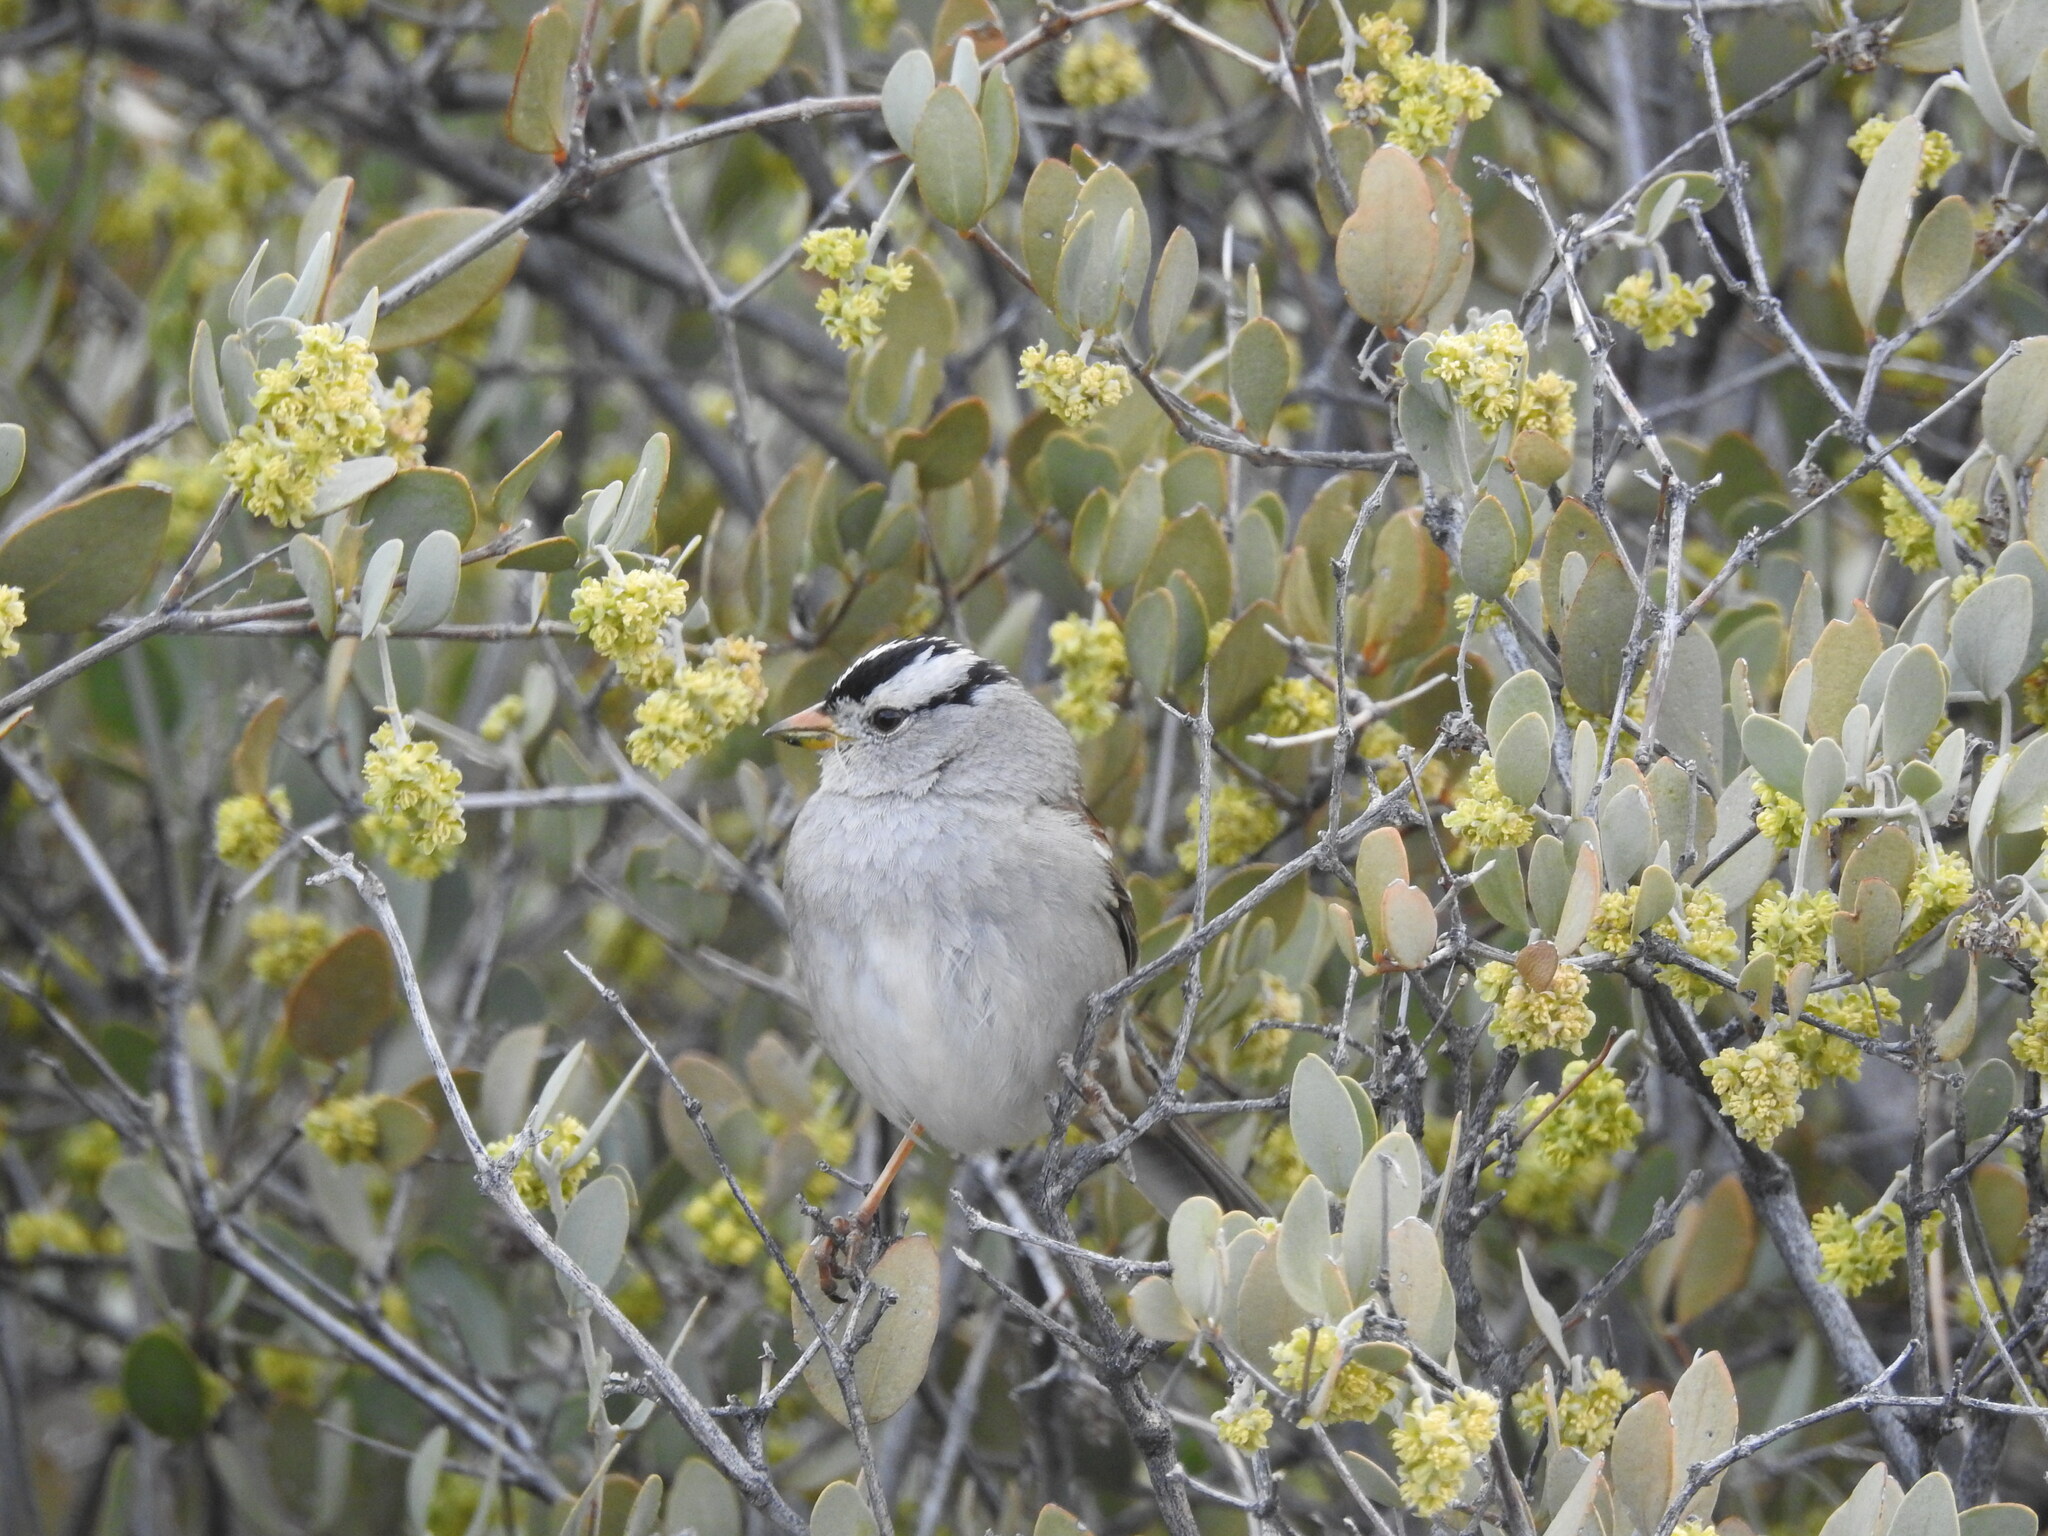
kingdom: Animalia
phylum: Chordata
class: Aves
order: Passeriformes
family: Passerellidae
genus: Zonotrichia
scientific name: Zonotrichia leucophrys
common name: White-crowned sparrow
